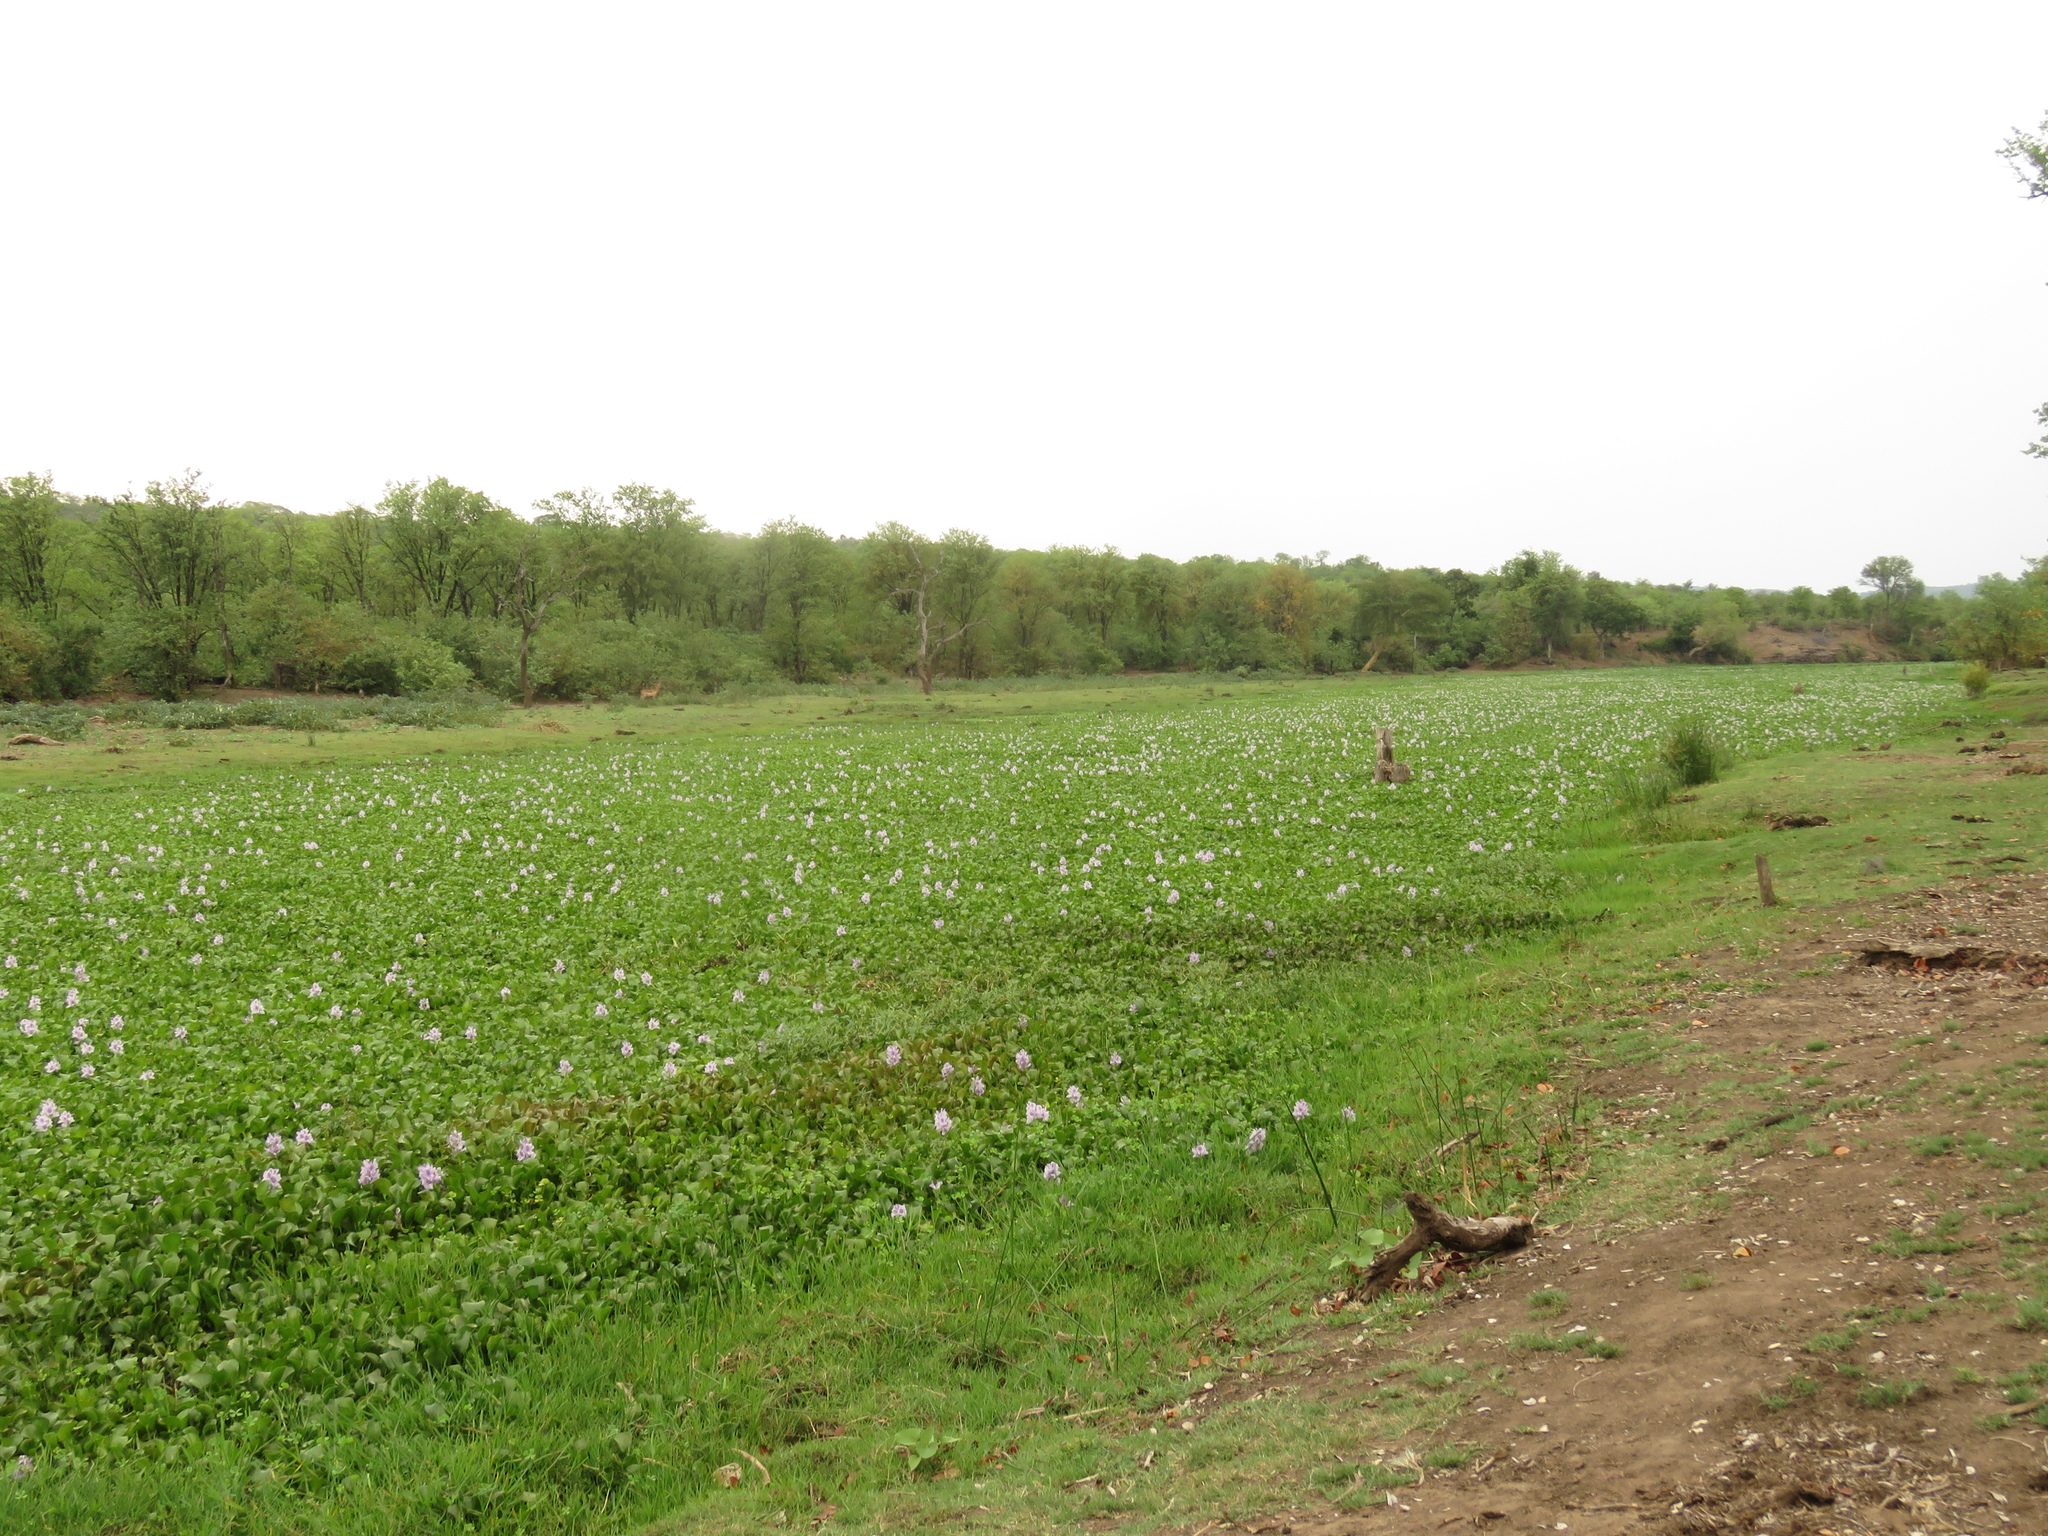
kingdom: Plantae
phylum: Tracheophyta
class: Liliopsida
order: Commelinales
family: Pontederiaceae
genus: Pontederia
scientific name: Pontederia crassipes
